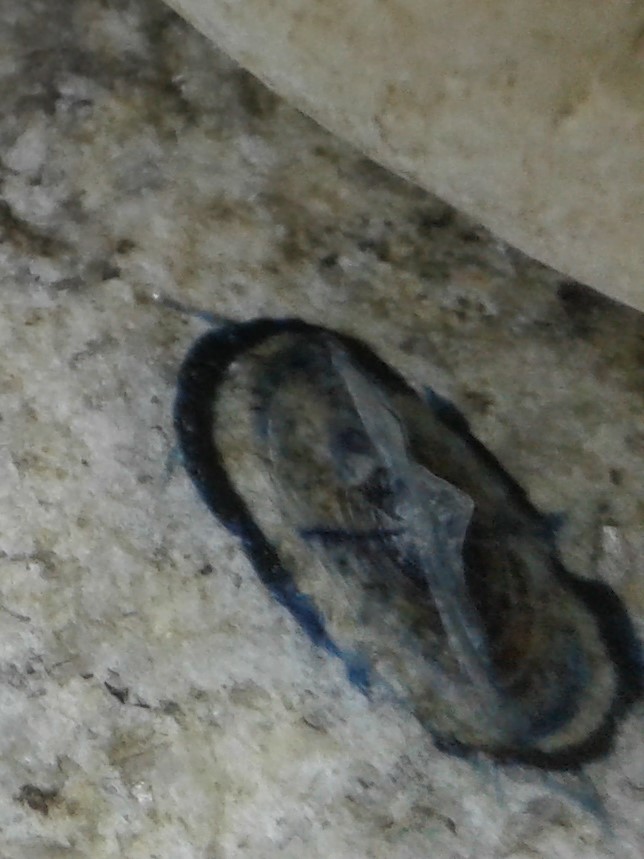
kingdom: Animalia
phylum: Cnidaria
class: Hydrozoa
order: Anthoathecata
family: Porpitidae
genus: Velella
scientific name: Velella velella
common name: By-the-wind-sailor
